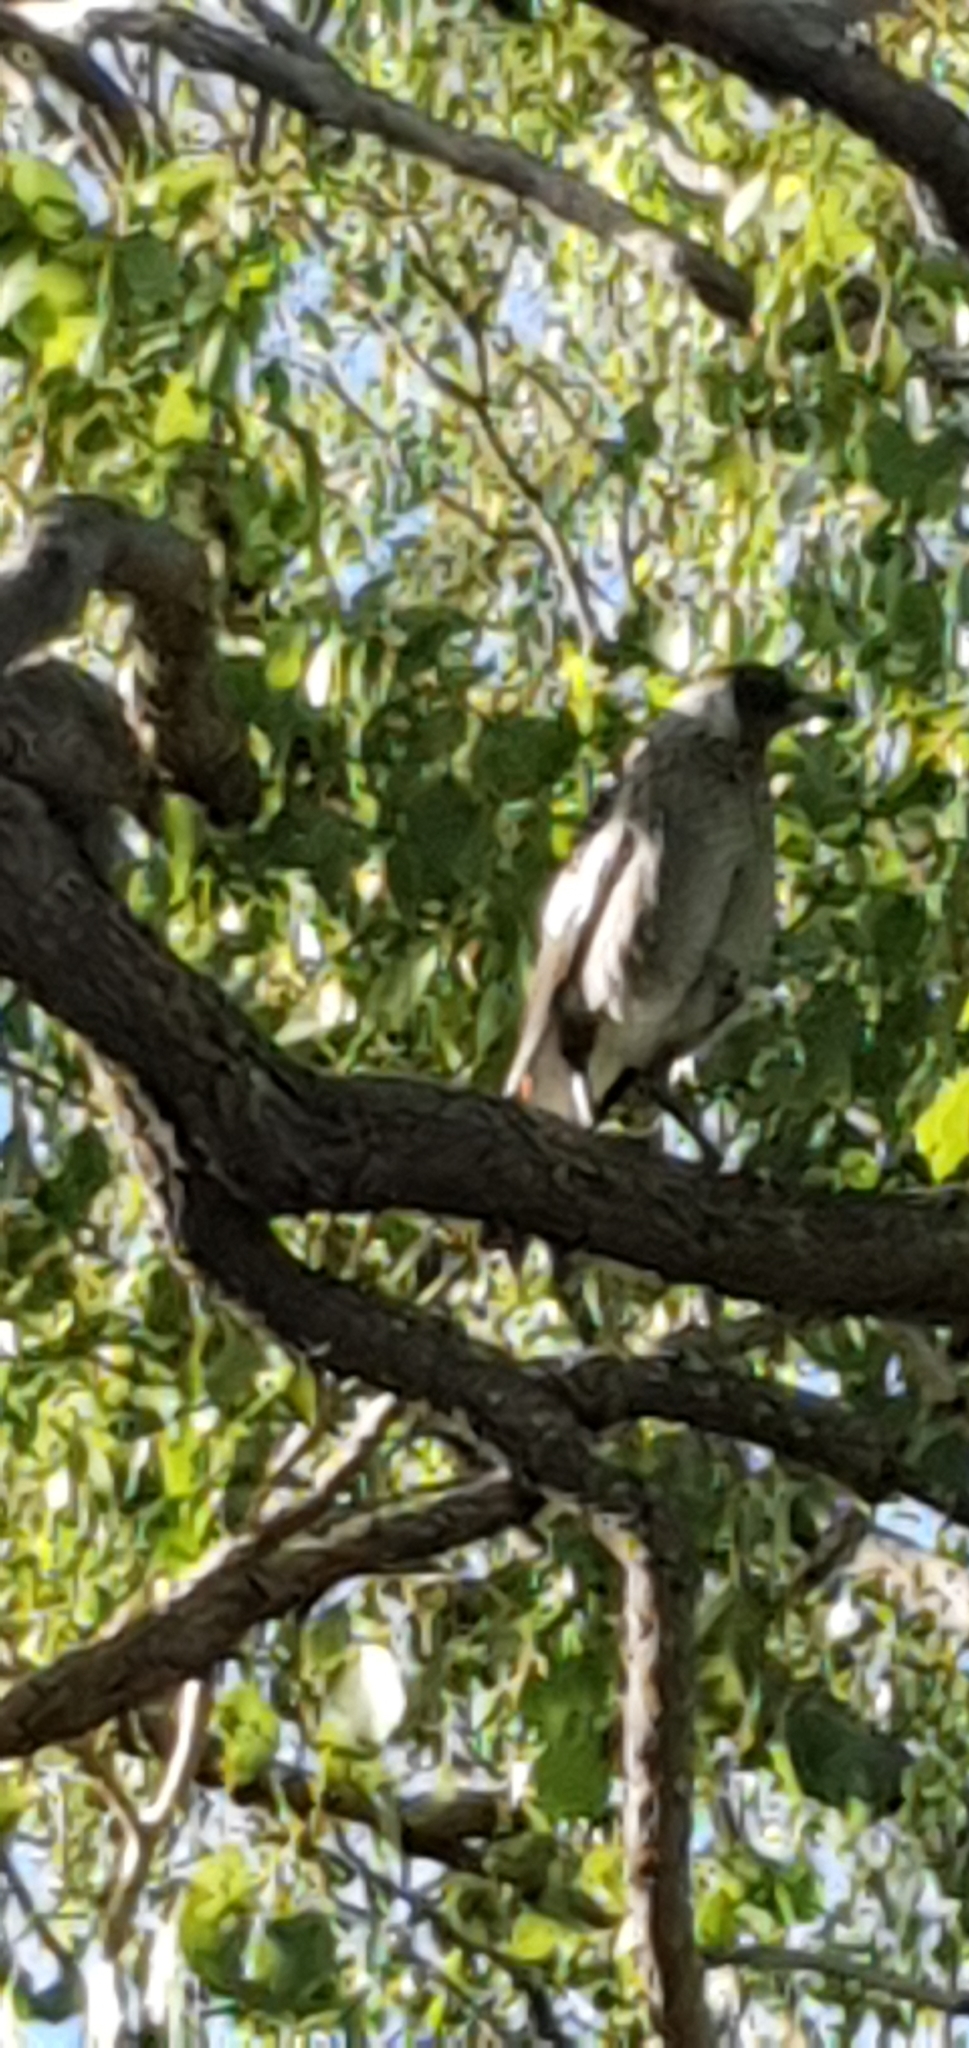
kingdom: Animalia
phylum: Chordata
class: Aves
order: Passeriformes
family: Cracticidae
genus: Gymnorhina
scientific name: Gymnorhina tibicen
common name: Australian magpie
